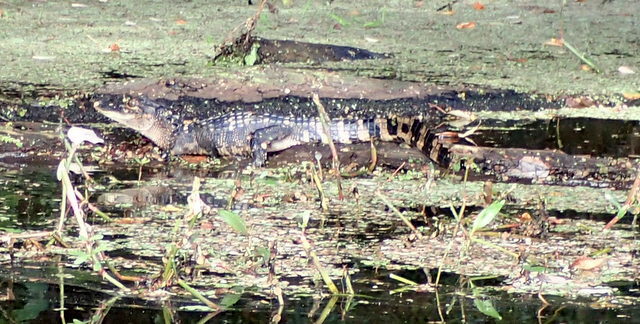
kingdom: Animalia
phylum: Chordata
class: Crocodylia
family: Alligatoridae
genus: Alligator
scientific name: Alligator mississippiensis
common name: American alligator
